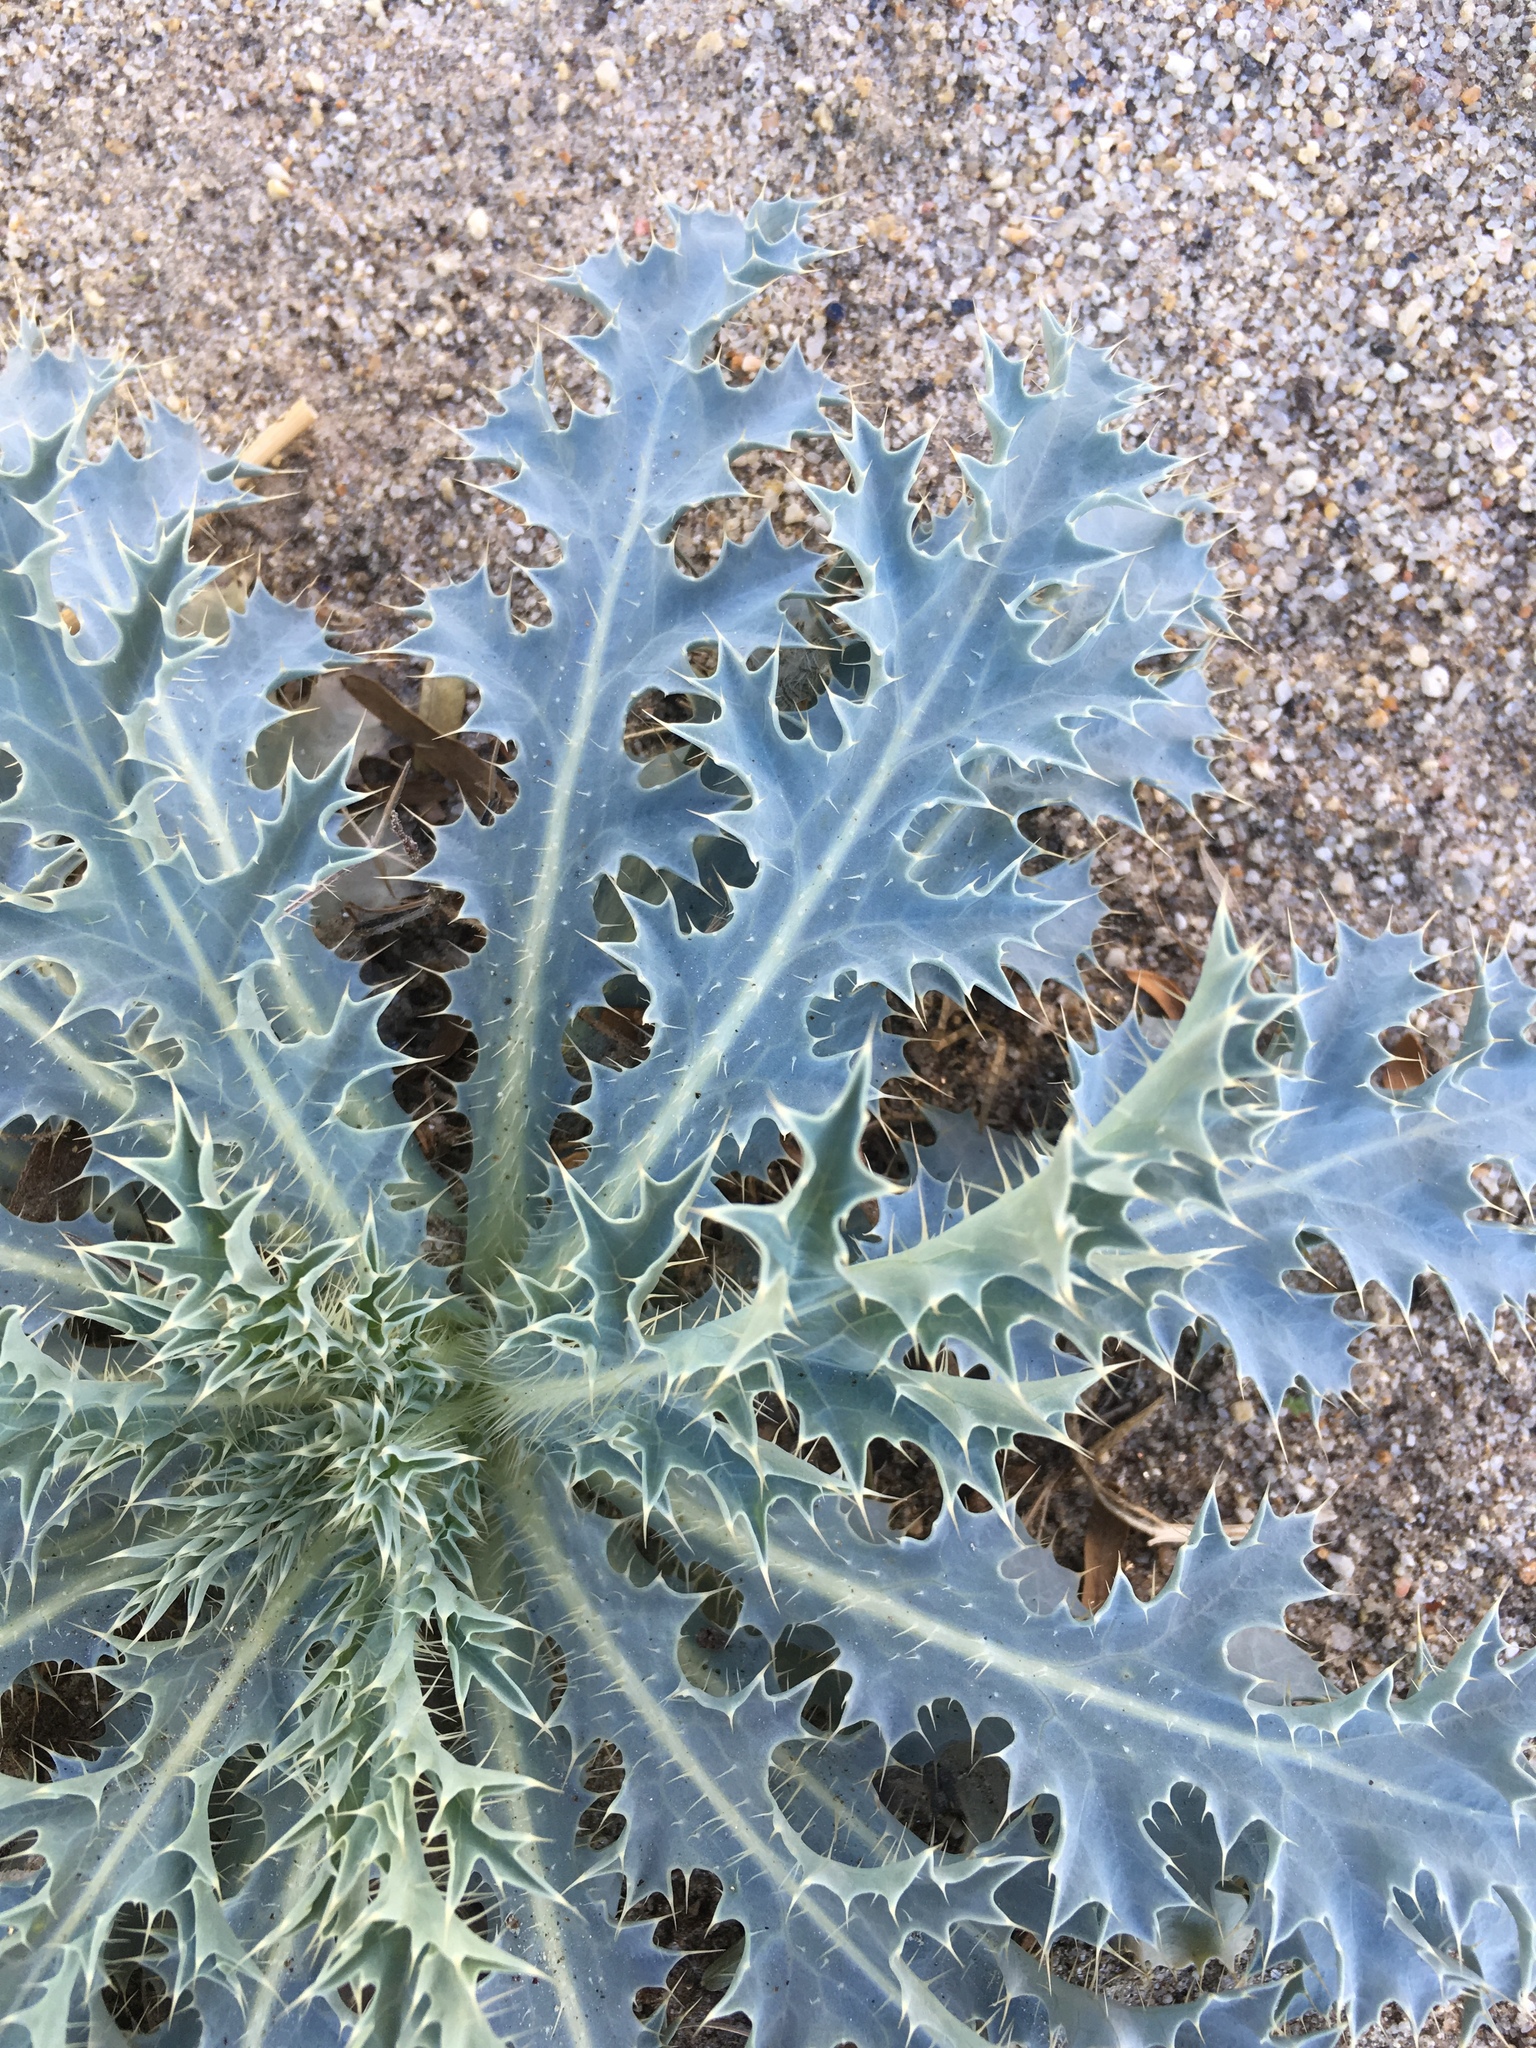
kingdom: Plantae
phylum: Tracheophyta
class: Magnoliopsida
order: Ranunculales
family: Papaveraceae
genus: Argemone
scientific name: Argemone munita
